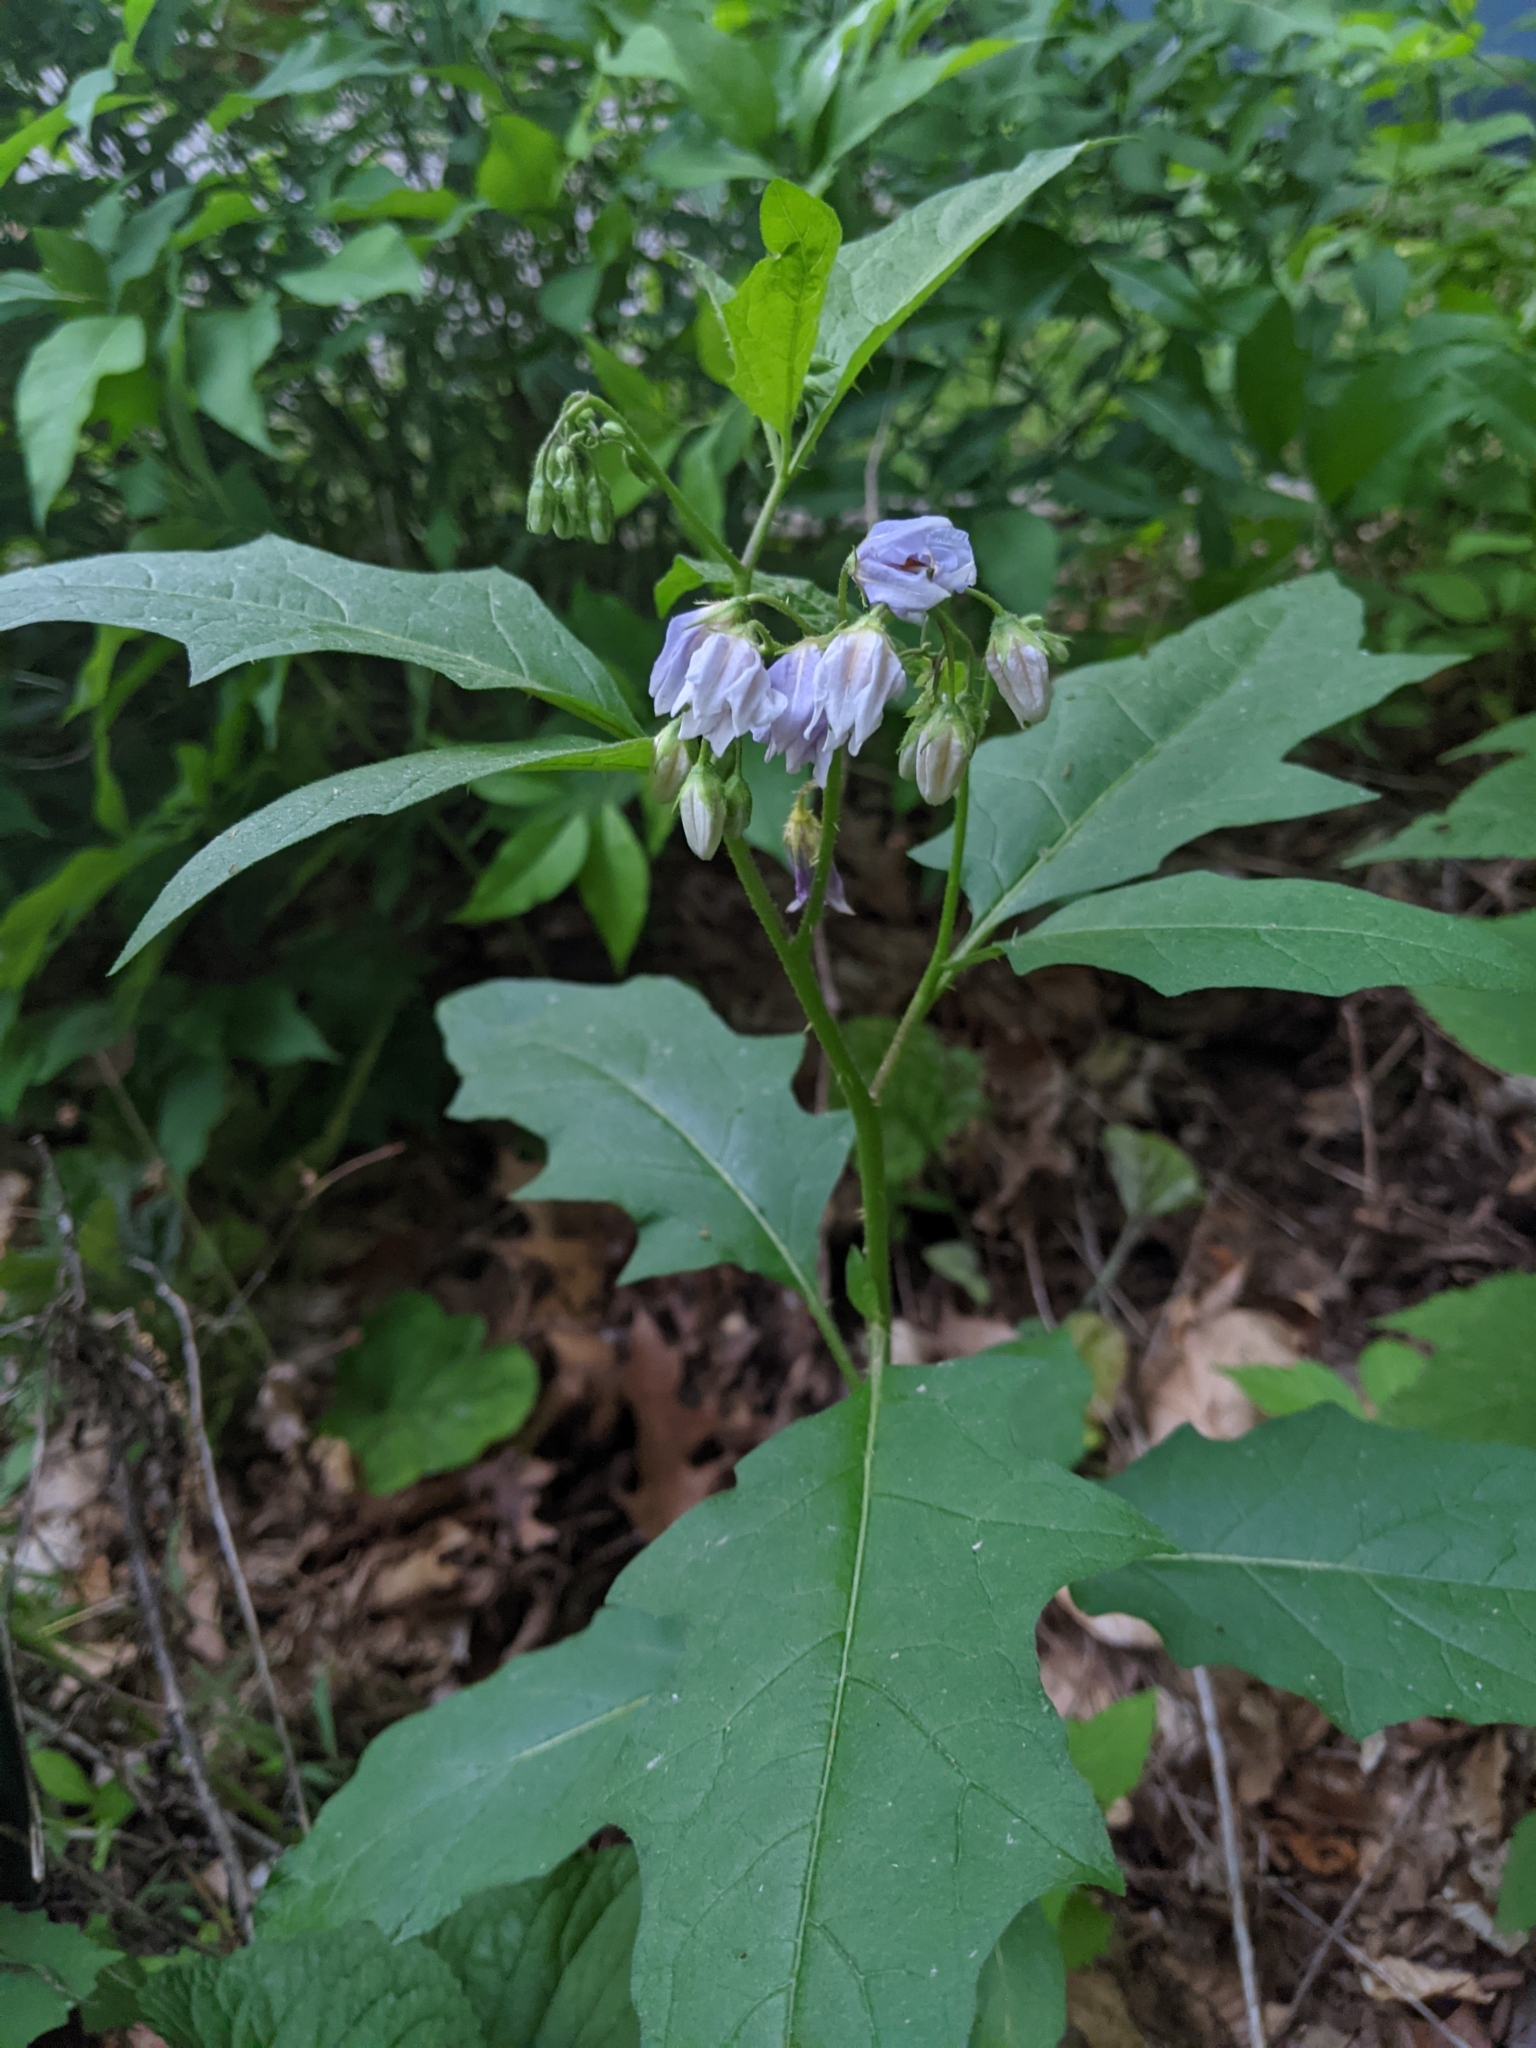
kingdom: Plantae
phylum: Tracheophyta
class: Magnoliopsida
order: Solanales
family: Solanaceae
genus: Solanum
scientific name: Solanum carolinense
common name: Horse-nettle
